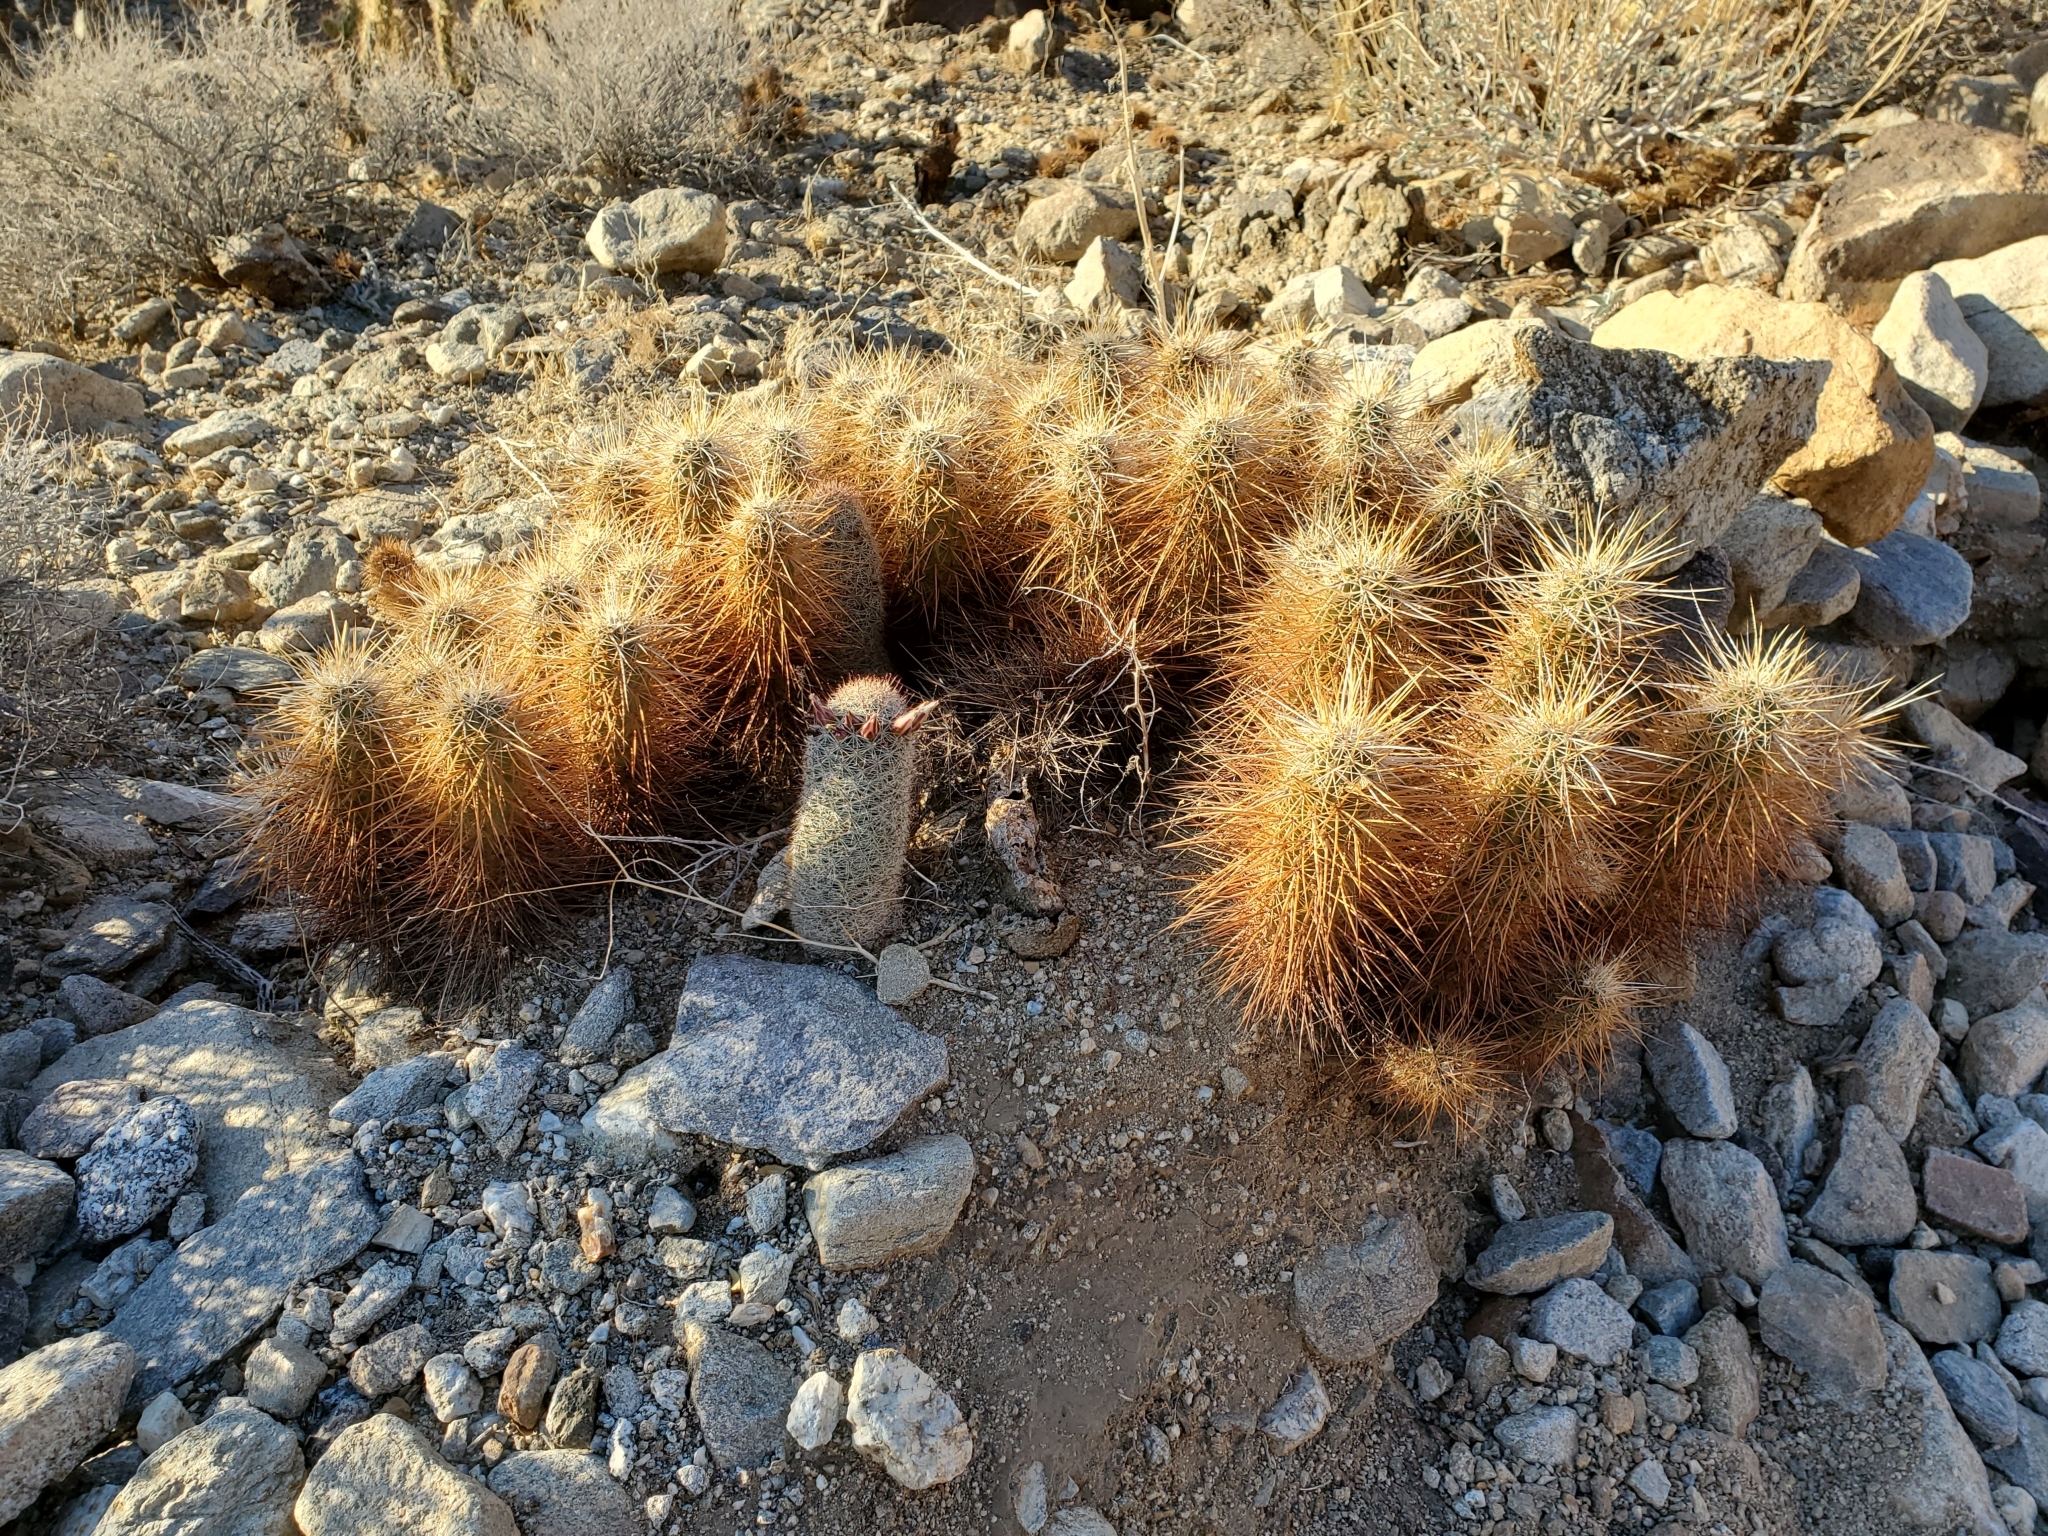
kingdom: Plantae
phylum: Tracheophyta
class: Magnoliopsida
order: Caryophyllales
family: Cactaceae
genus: Echinocereus
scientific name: Echinocereus engelmannii
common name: Engelmann's hedgehog cactus
